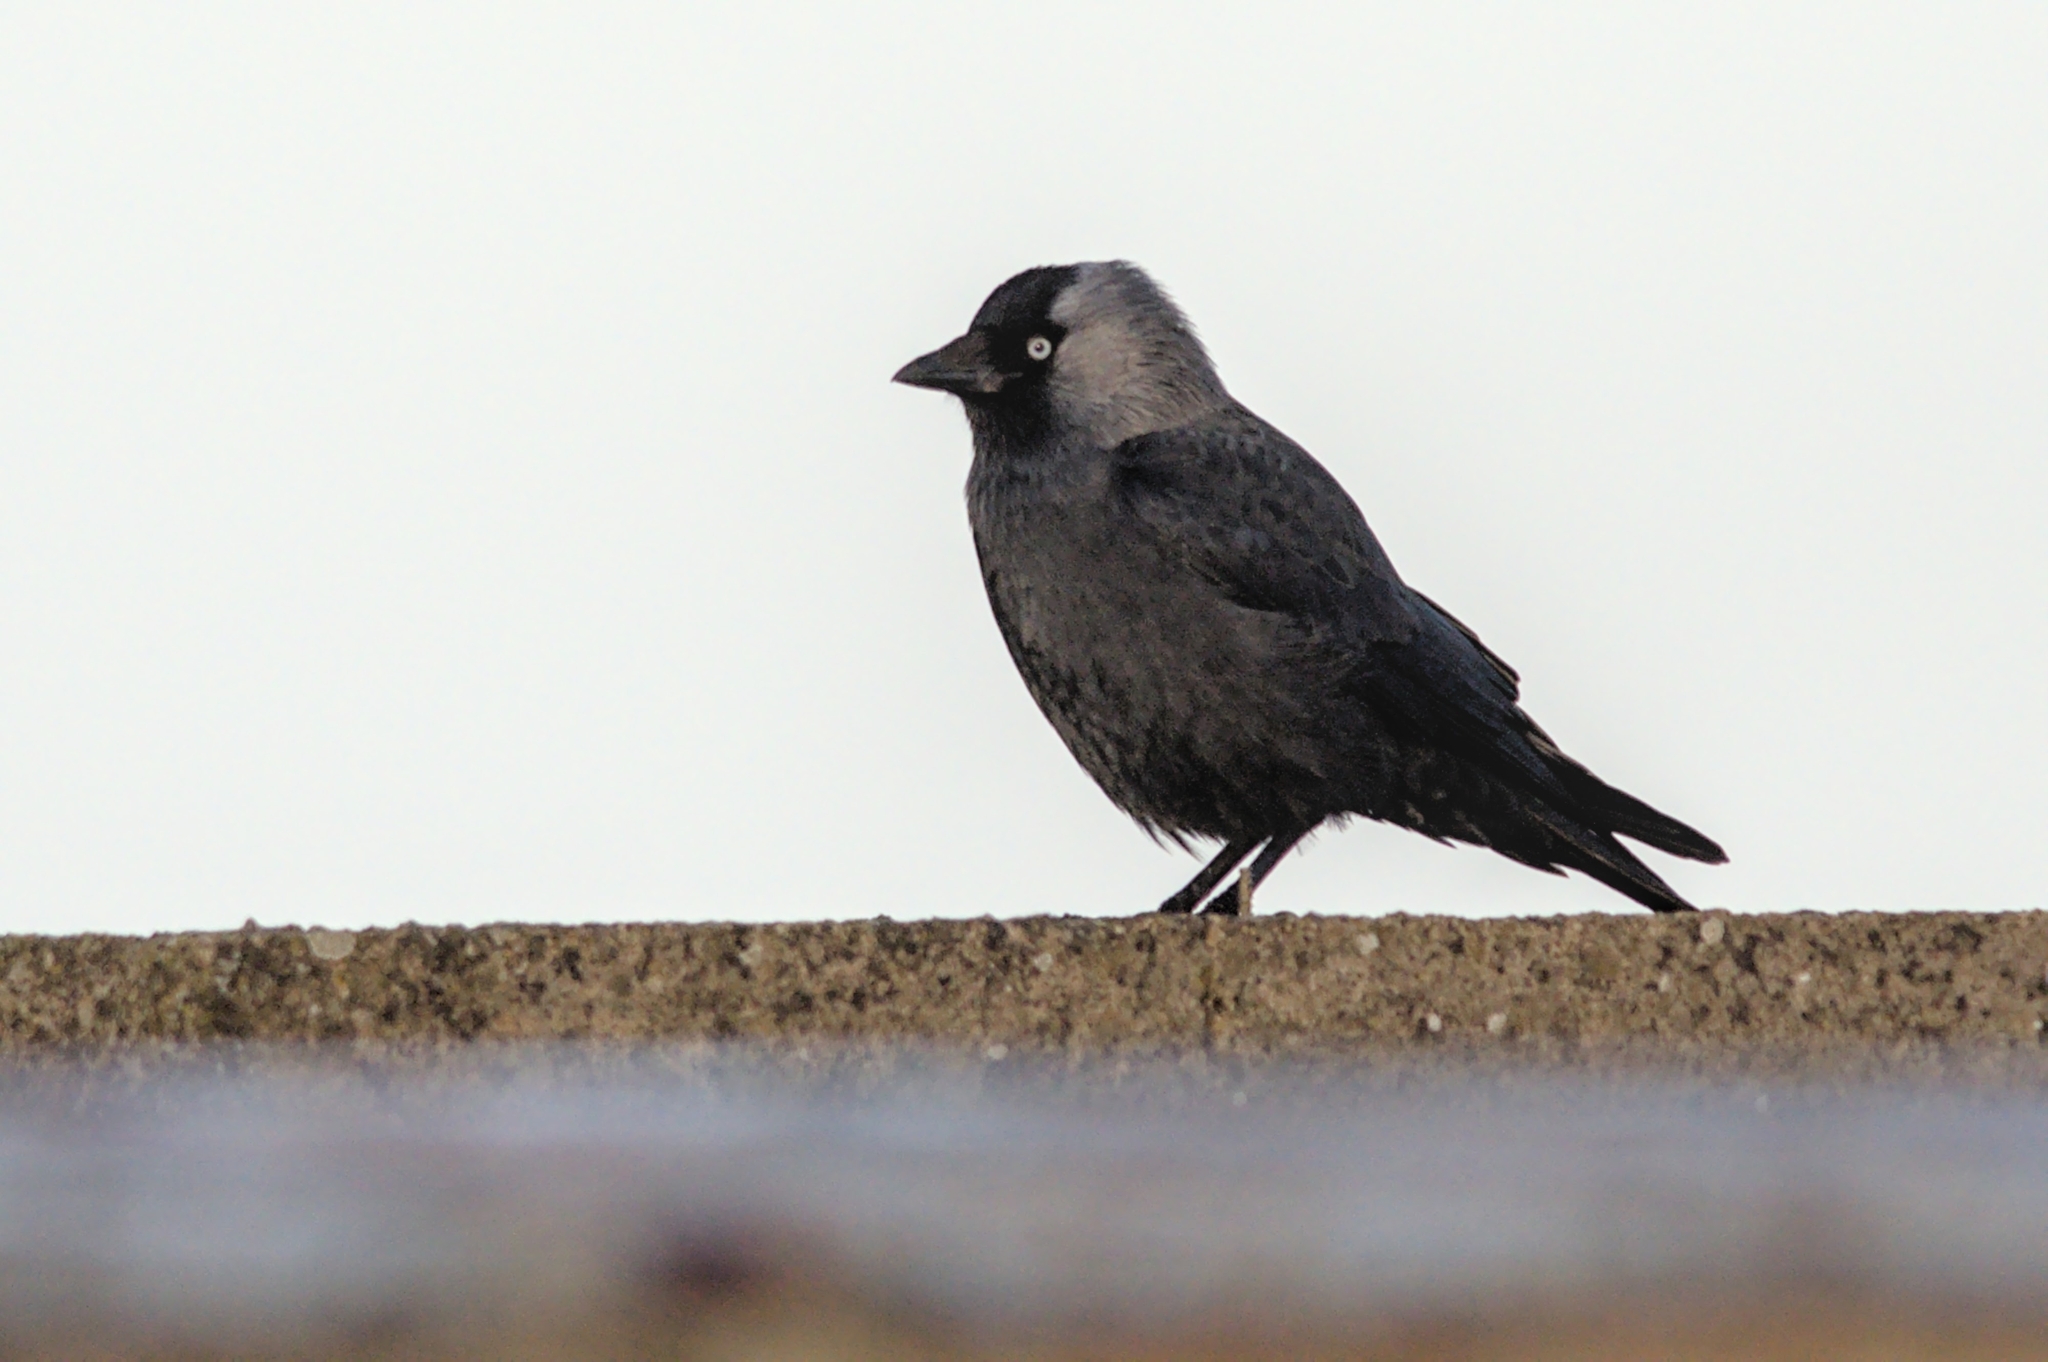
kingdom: Animalia
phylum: Chordata
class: Aves
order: Passeriformes
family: Corvidae
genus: Coloeus
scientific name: Coloeus monedula
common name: Western jackdaw
